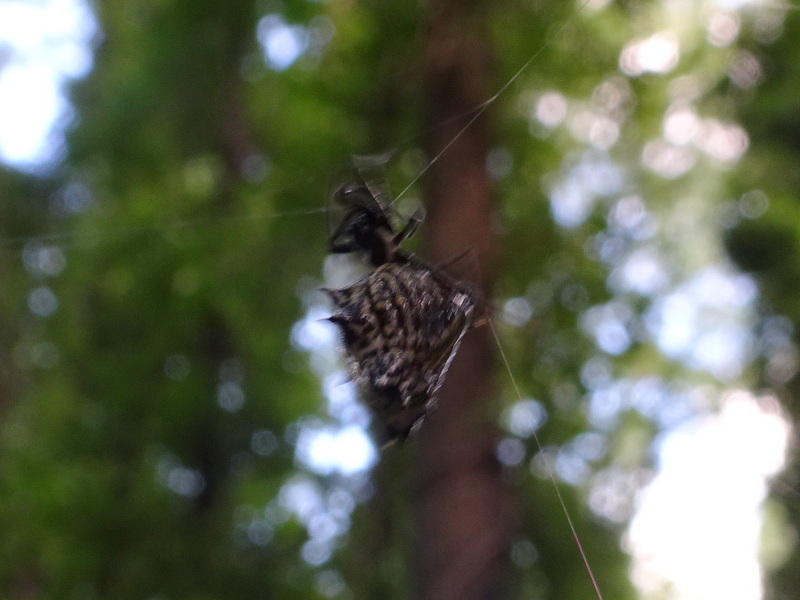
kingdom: Animalia
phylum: Arthropoda
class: Arachnida
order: Araneae
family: Araneidae
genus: Micrathena
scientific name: Micrathena gracilis
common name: Orb weavers
